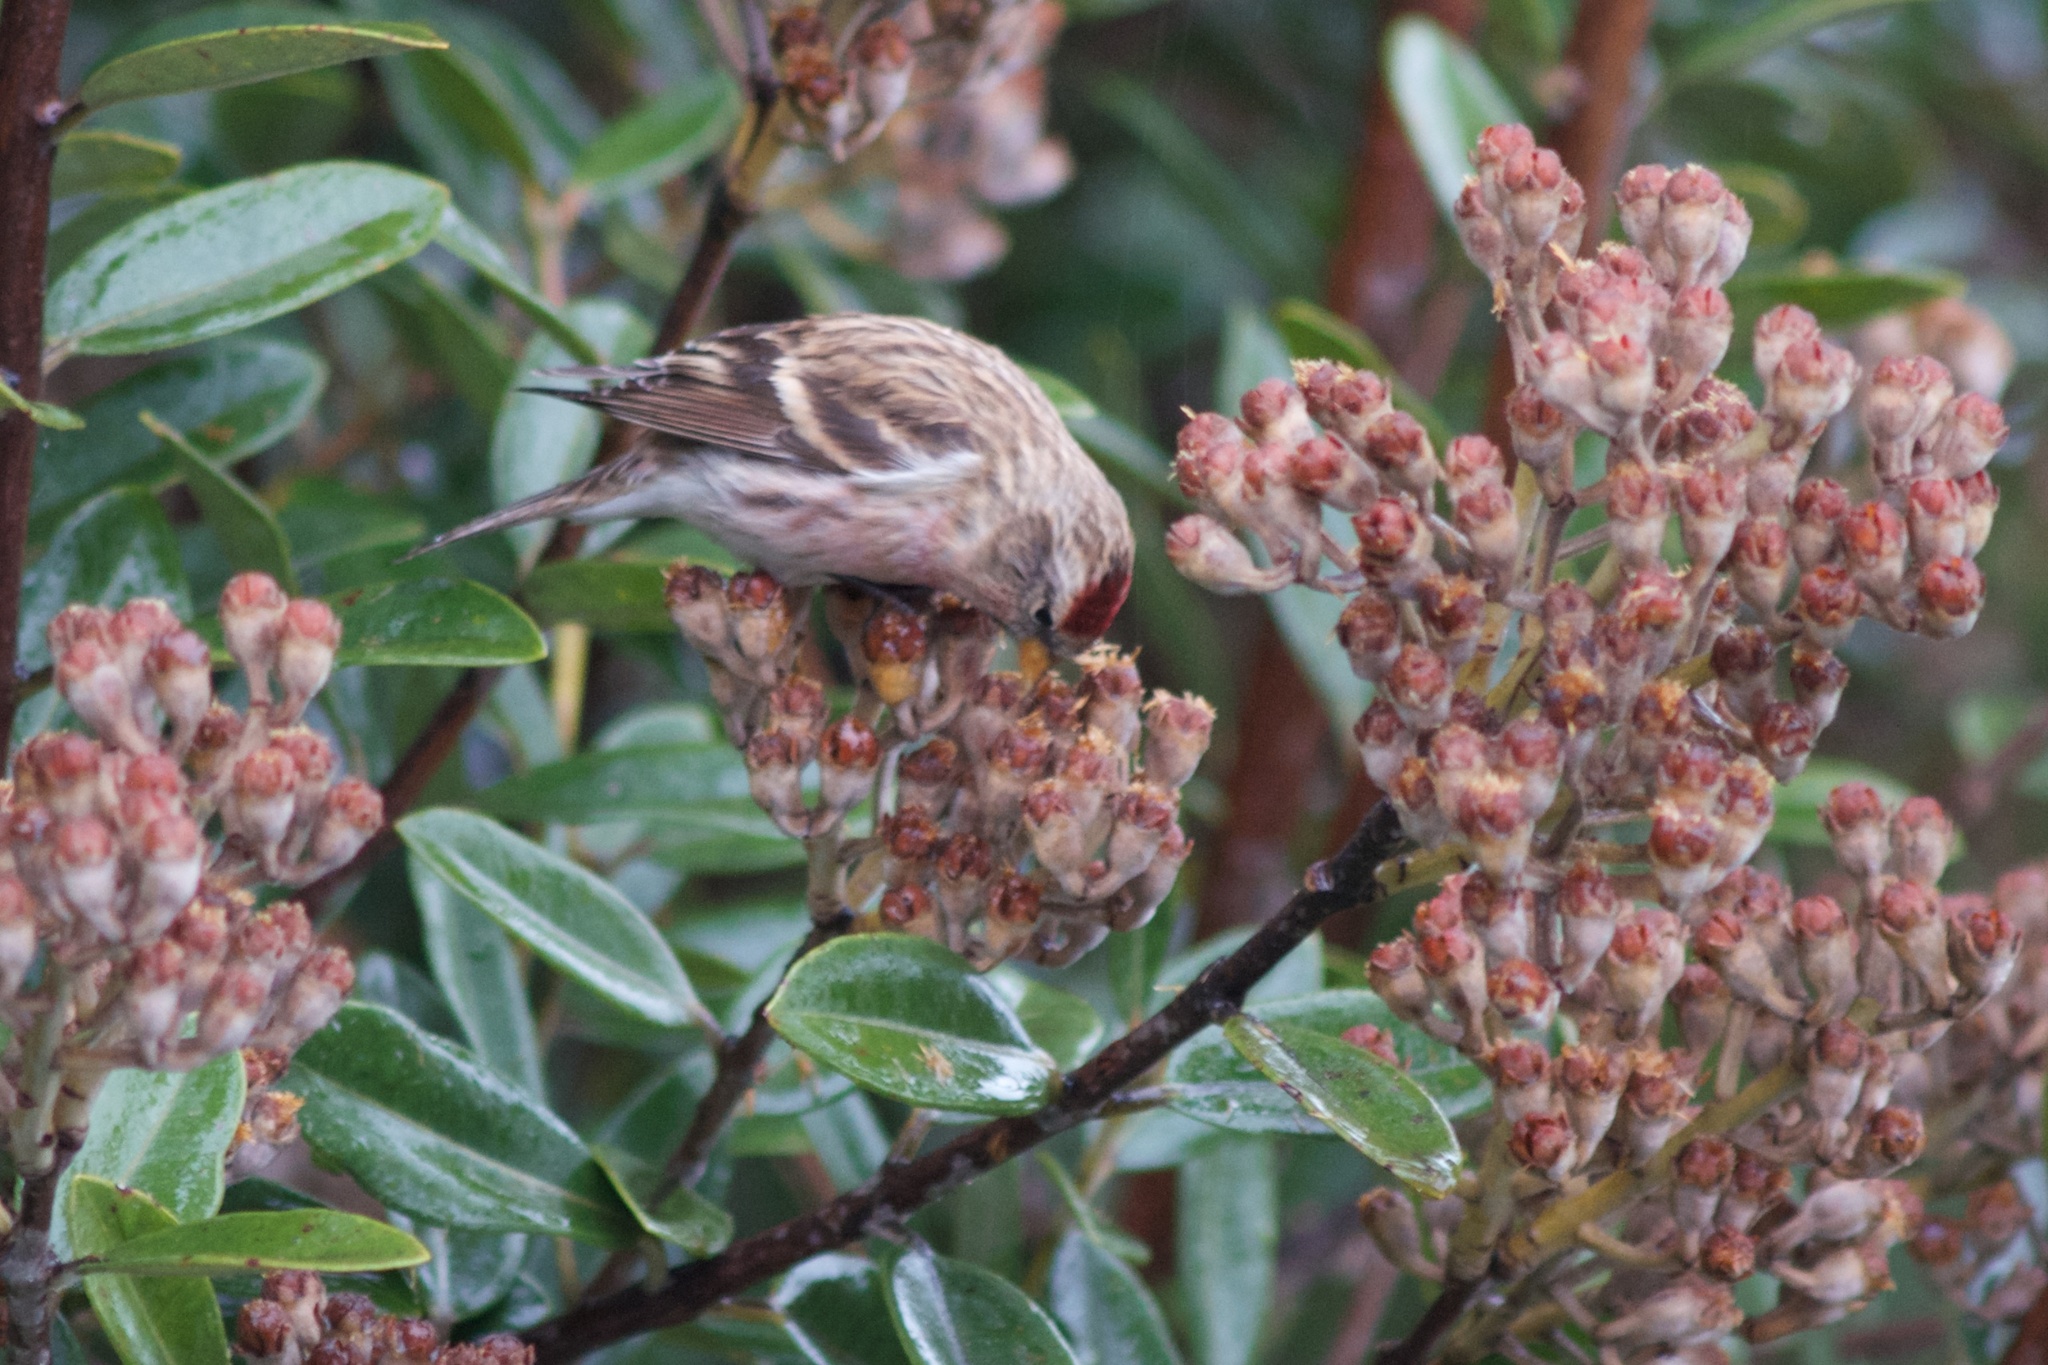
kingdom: Animalia
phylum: Chordata
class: Aves
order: Passeriformes
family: Fringillidae
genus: Acanthis
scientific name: Acanthis flammea
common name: Common redpoll
